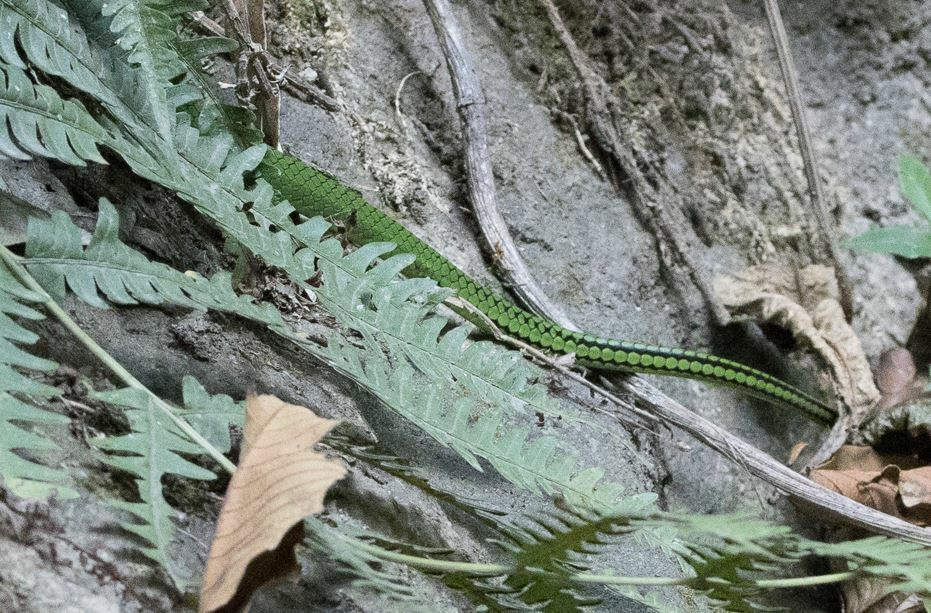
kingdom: Animalia
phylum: Chordata
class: Squamata
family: Colubridae
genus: Chironius
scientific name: Chironius monticola
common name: Mountain sipo
